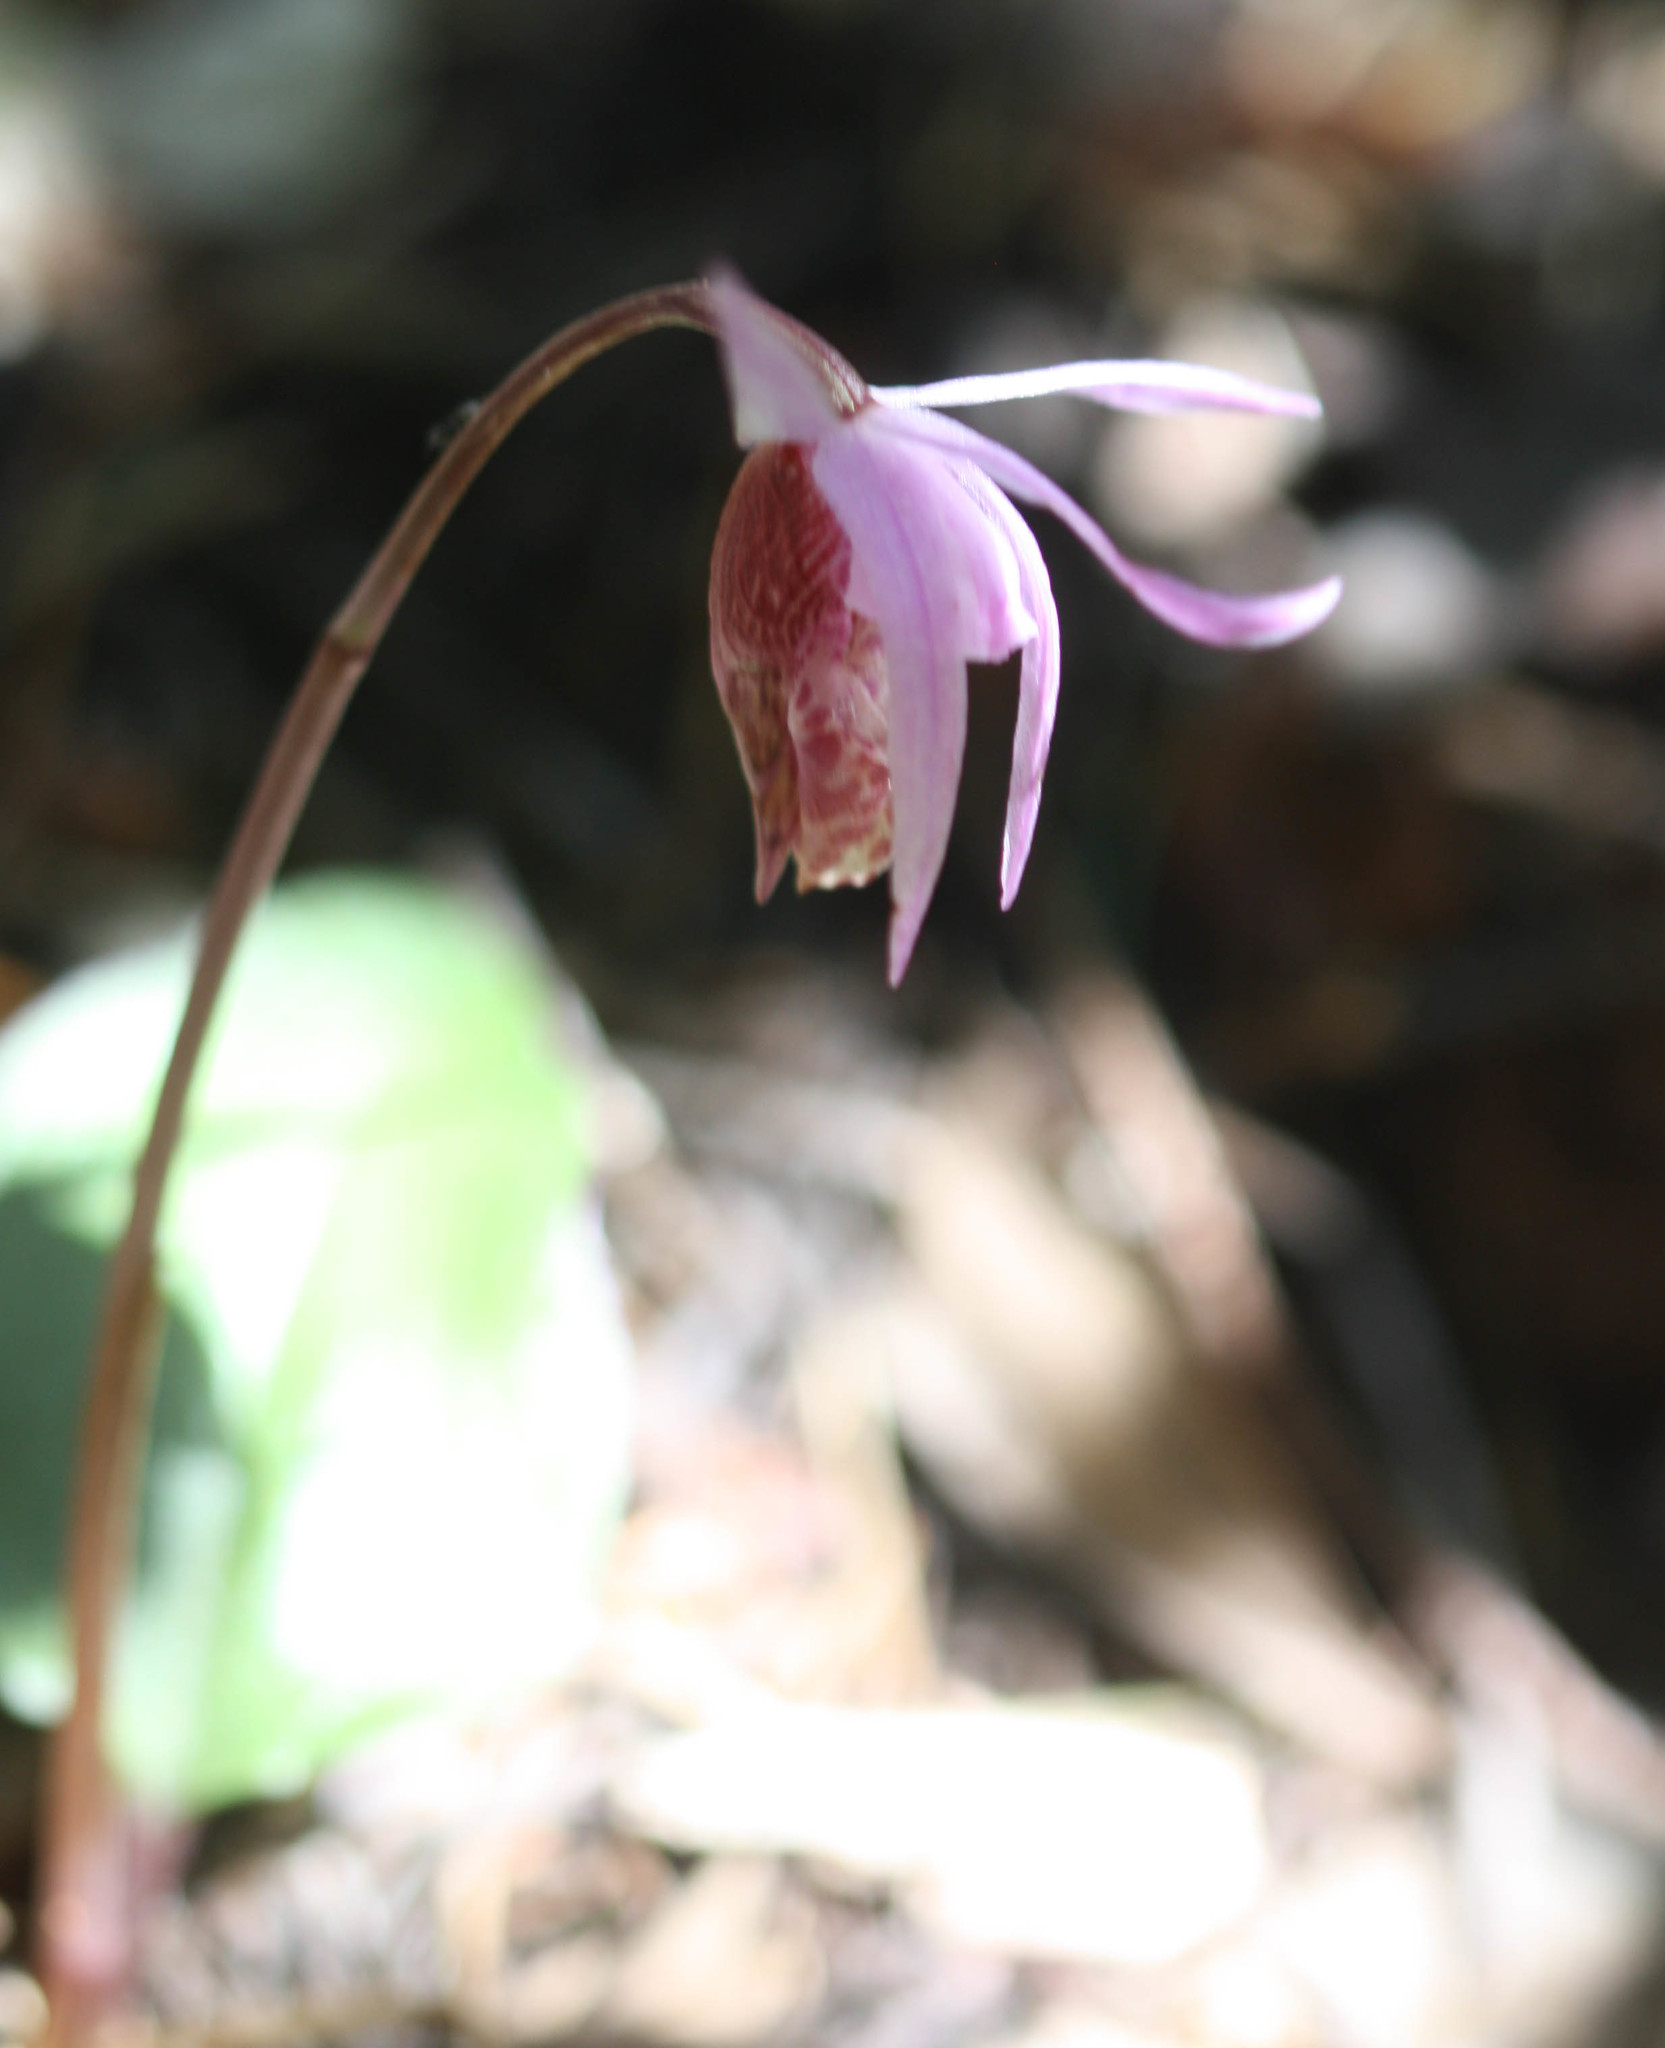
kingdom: Plantae
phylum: Tracheophyta
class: Liliopsida
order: Asparagales
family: Orchidaceae
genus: Calypso
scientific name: Calypso bulbosa
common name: Calypso
